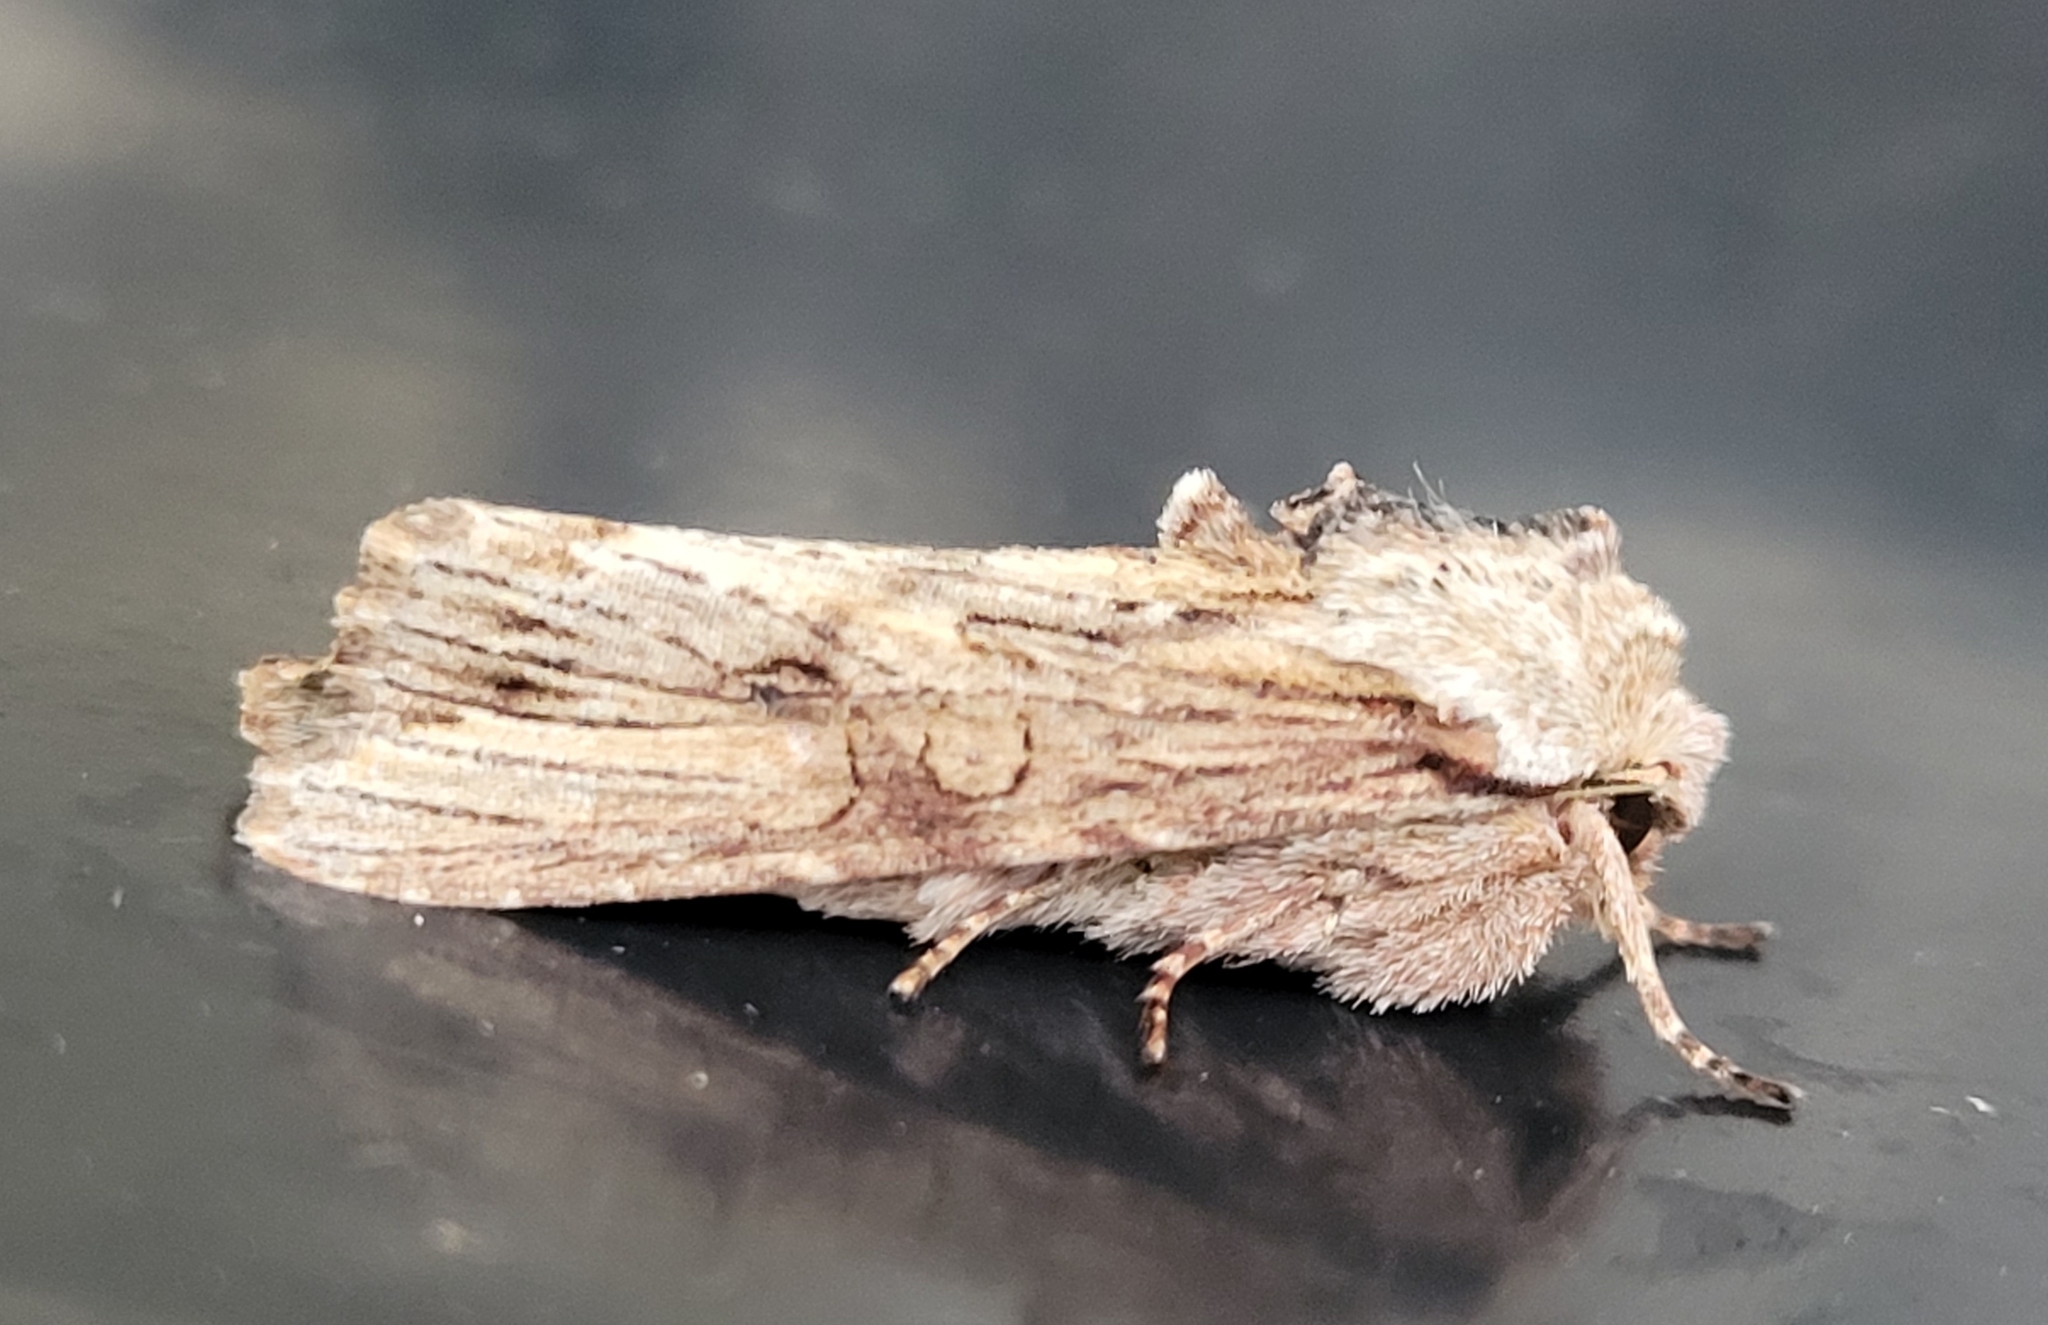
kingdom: Animalia
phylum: Arthropoda
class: Insecta
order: Lepidoptera
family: Noctuidae
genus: Egira
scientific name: Egira conspicillaris
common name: Silver cloud
